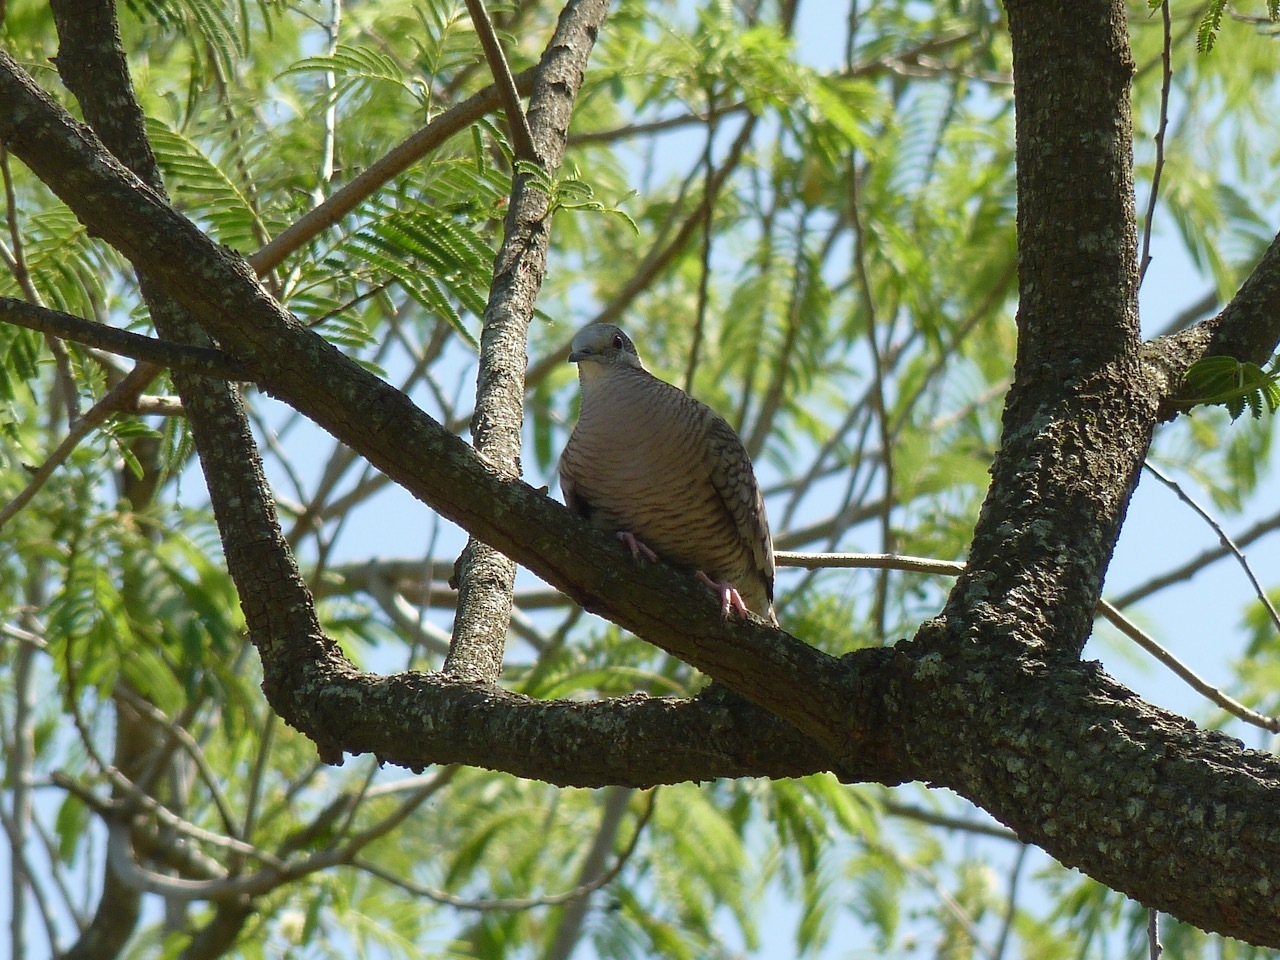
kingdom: Animalia
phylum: Chordata
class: Aves
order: Columbiformes
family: Columbidae
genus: Columbina
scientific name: Columbina inca
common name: Inca dove
